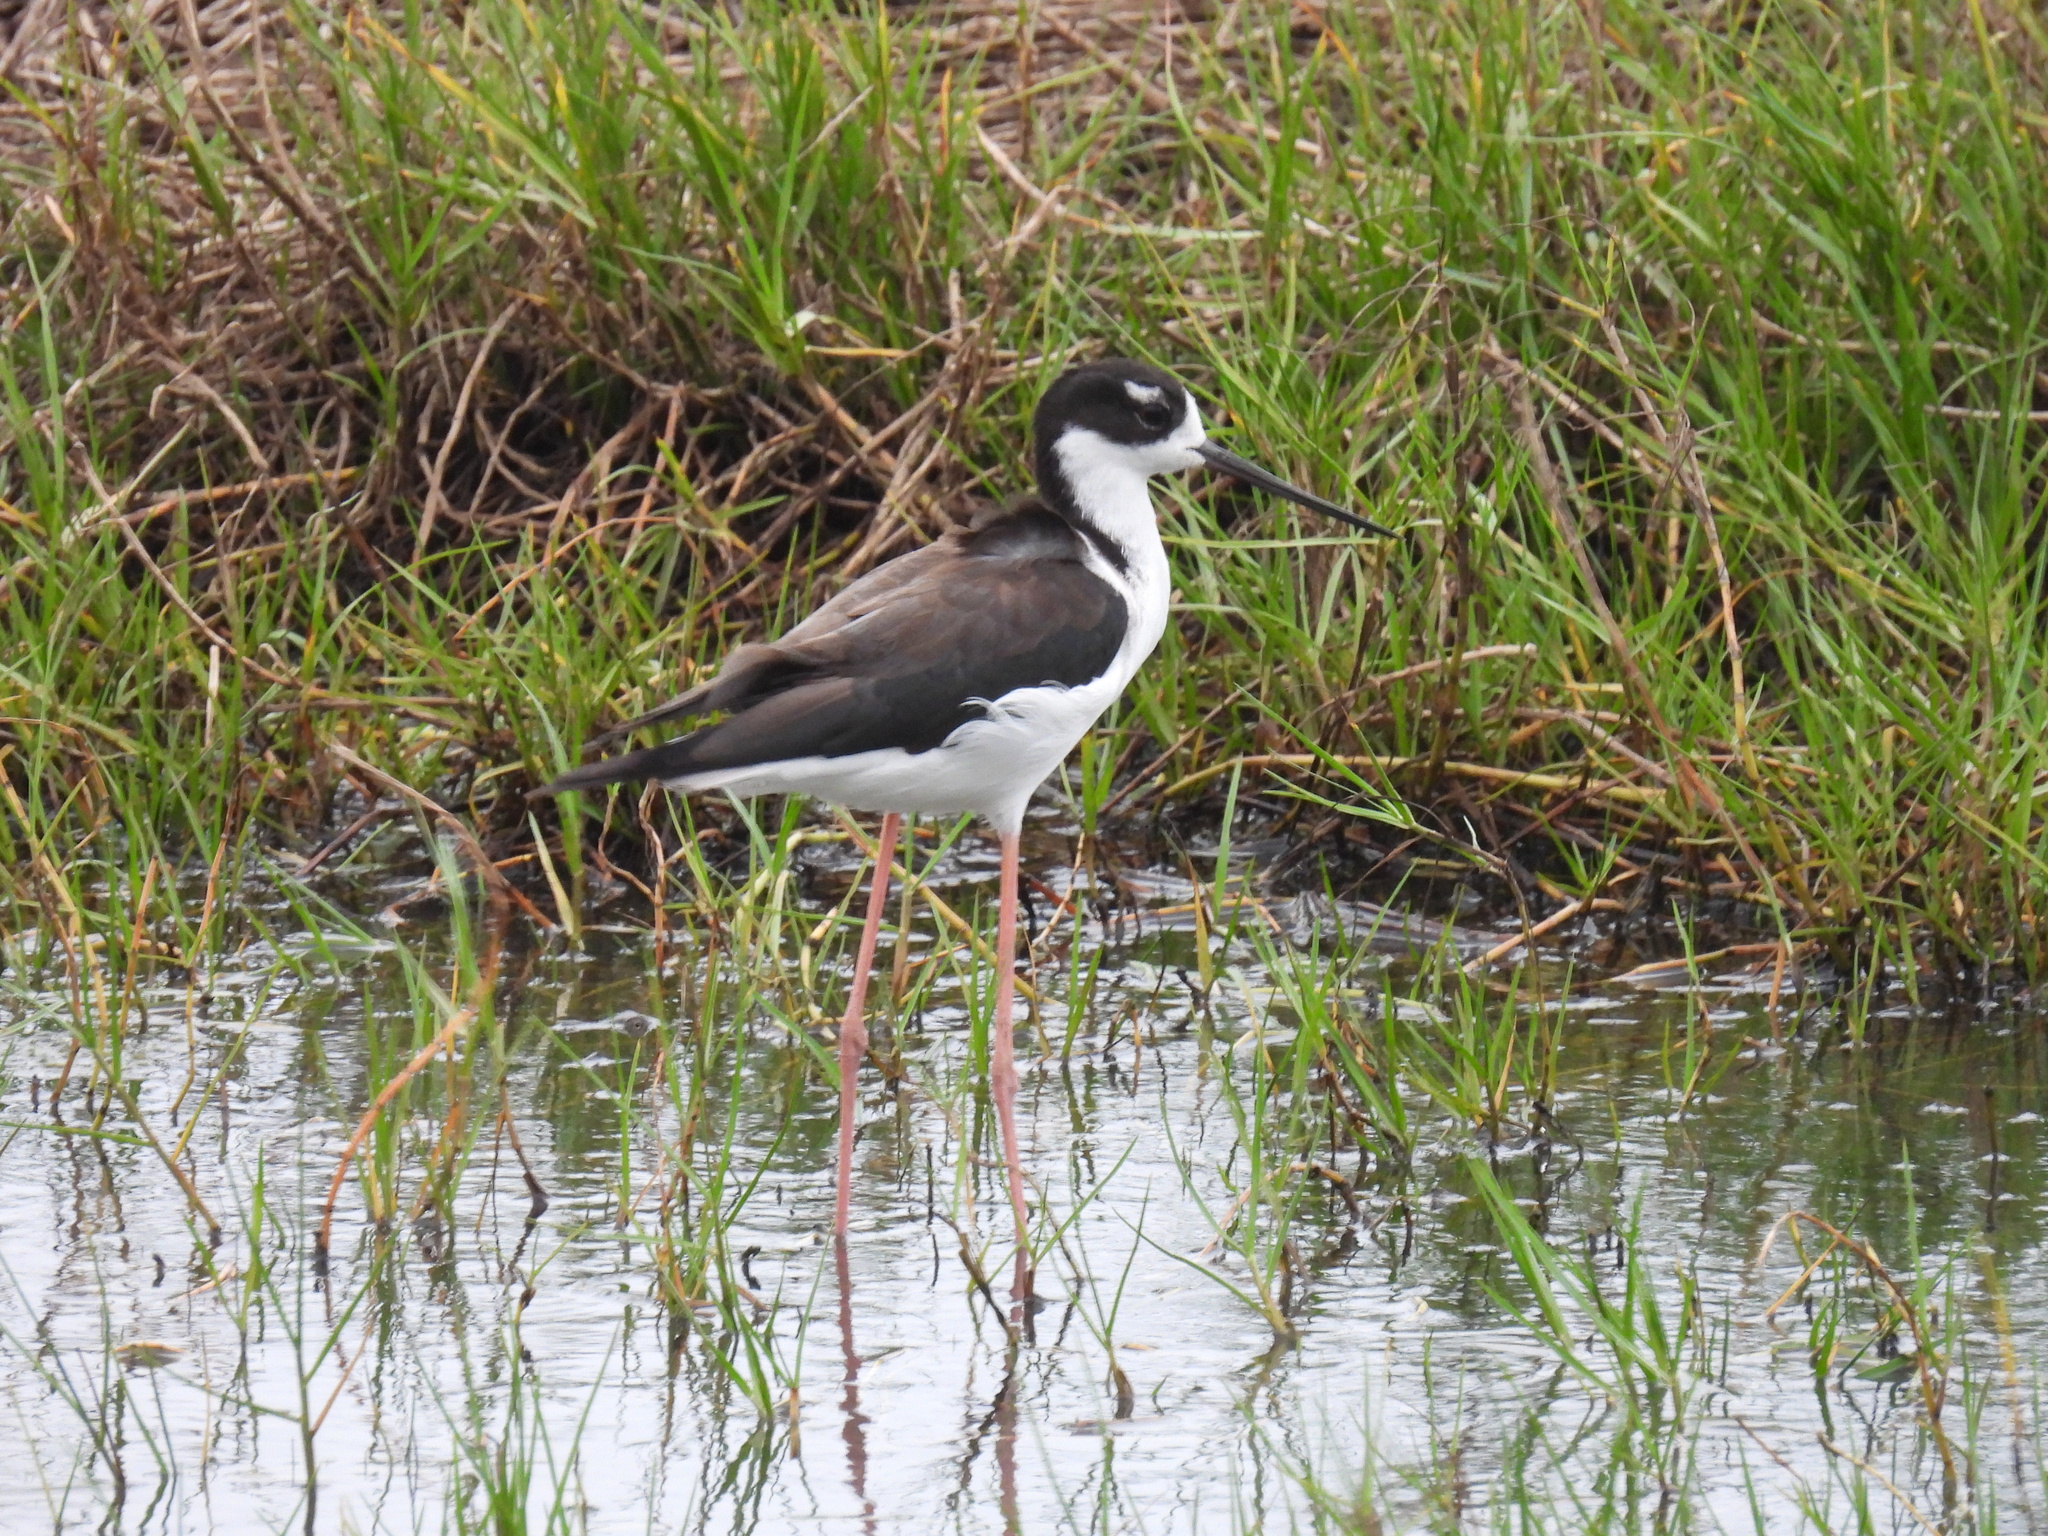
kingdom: Animalia
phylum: Chordata
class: Aves
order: Charadriiformes
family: Recurvirostridae
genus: Himantopus
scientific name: Himantopus mexicanus
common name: Black-necked stilt
